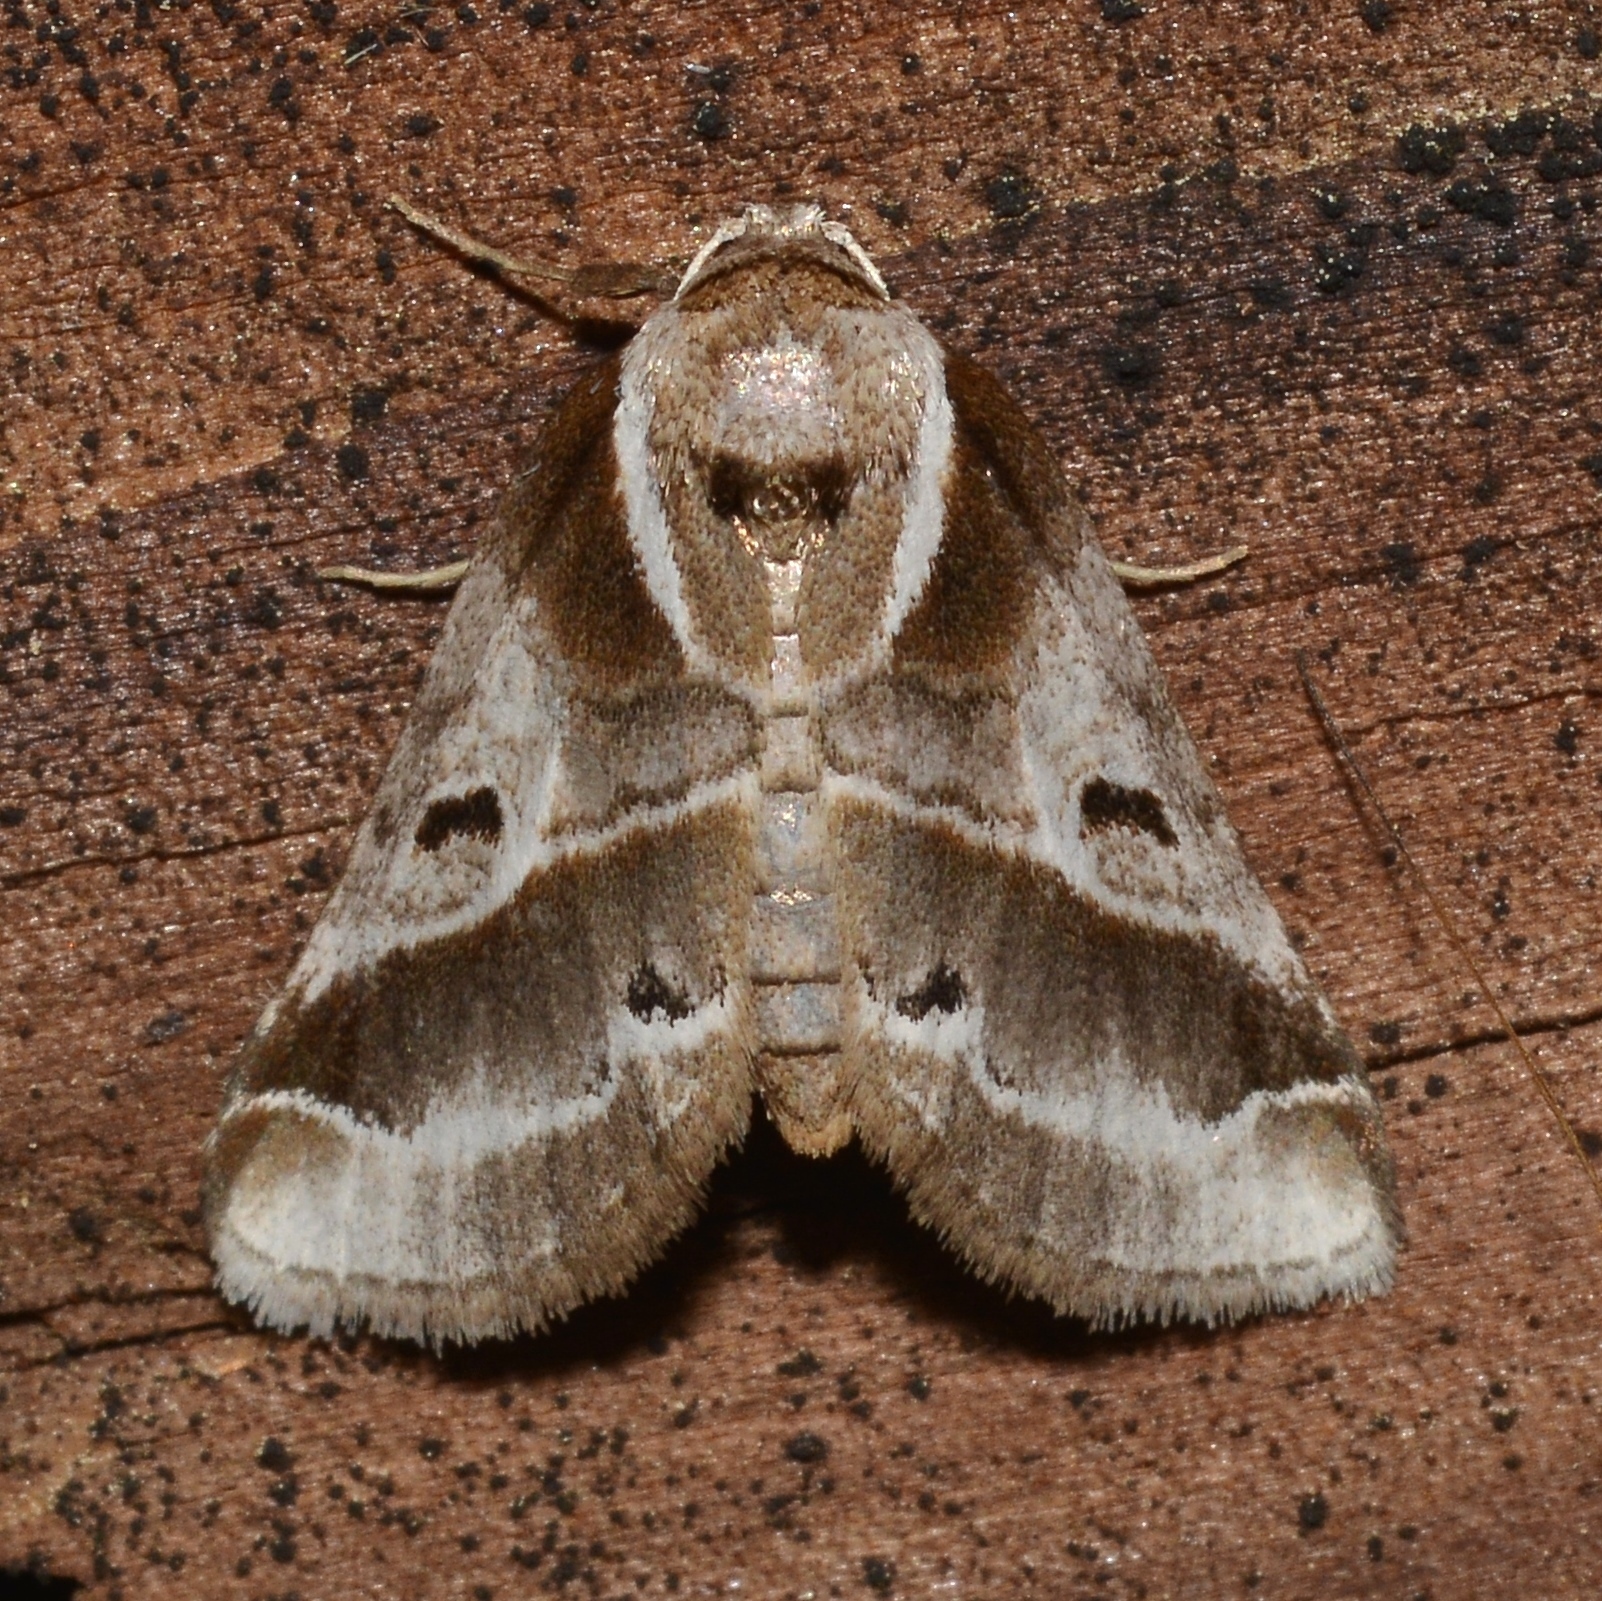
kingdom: Animalia
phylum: Arthropoda
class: Insecta
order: Lepidoptera
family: Nolidae
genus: Baileya
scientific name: Baileya doubledayi
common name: Doubleday's baileya moth
